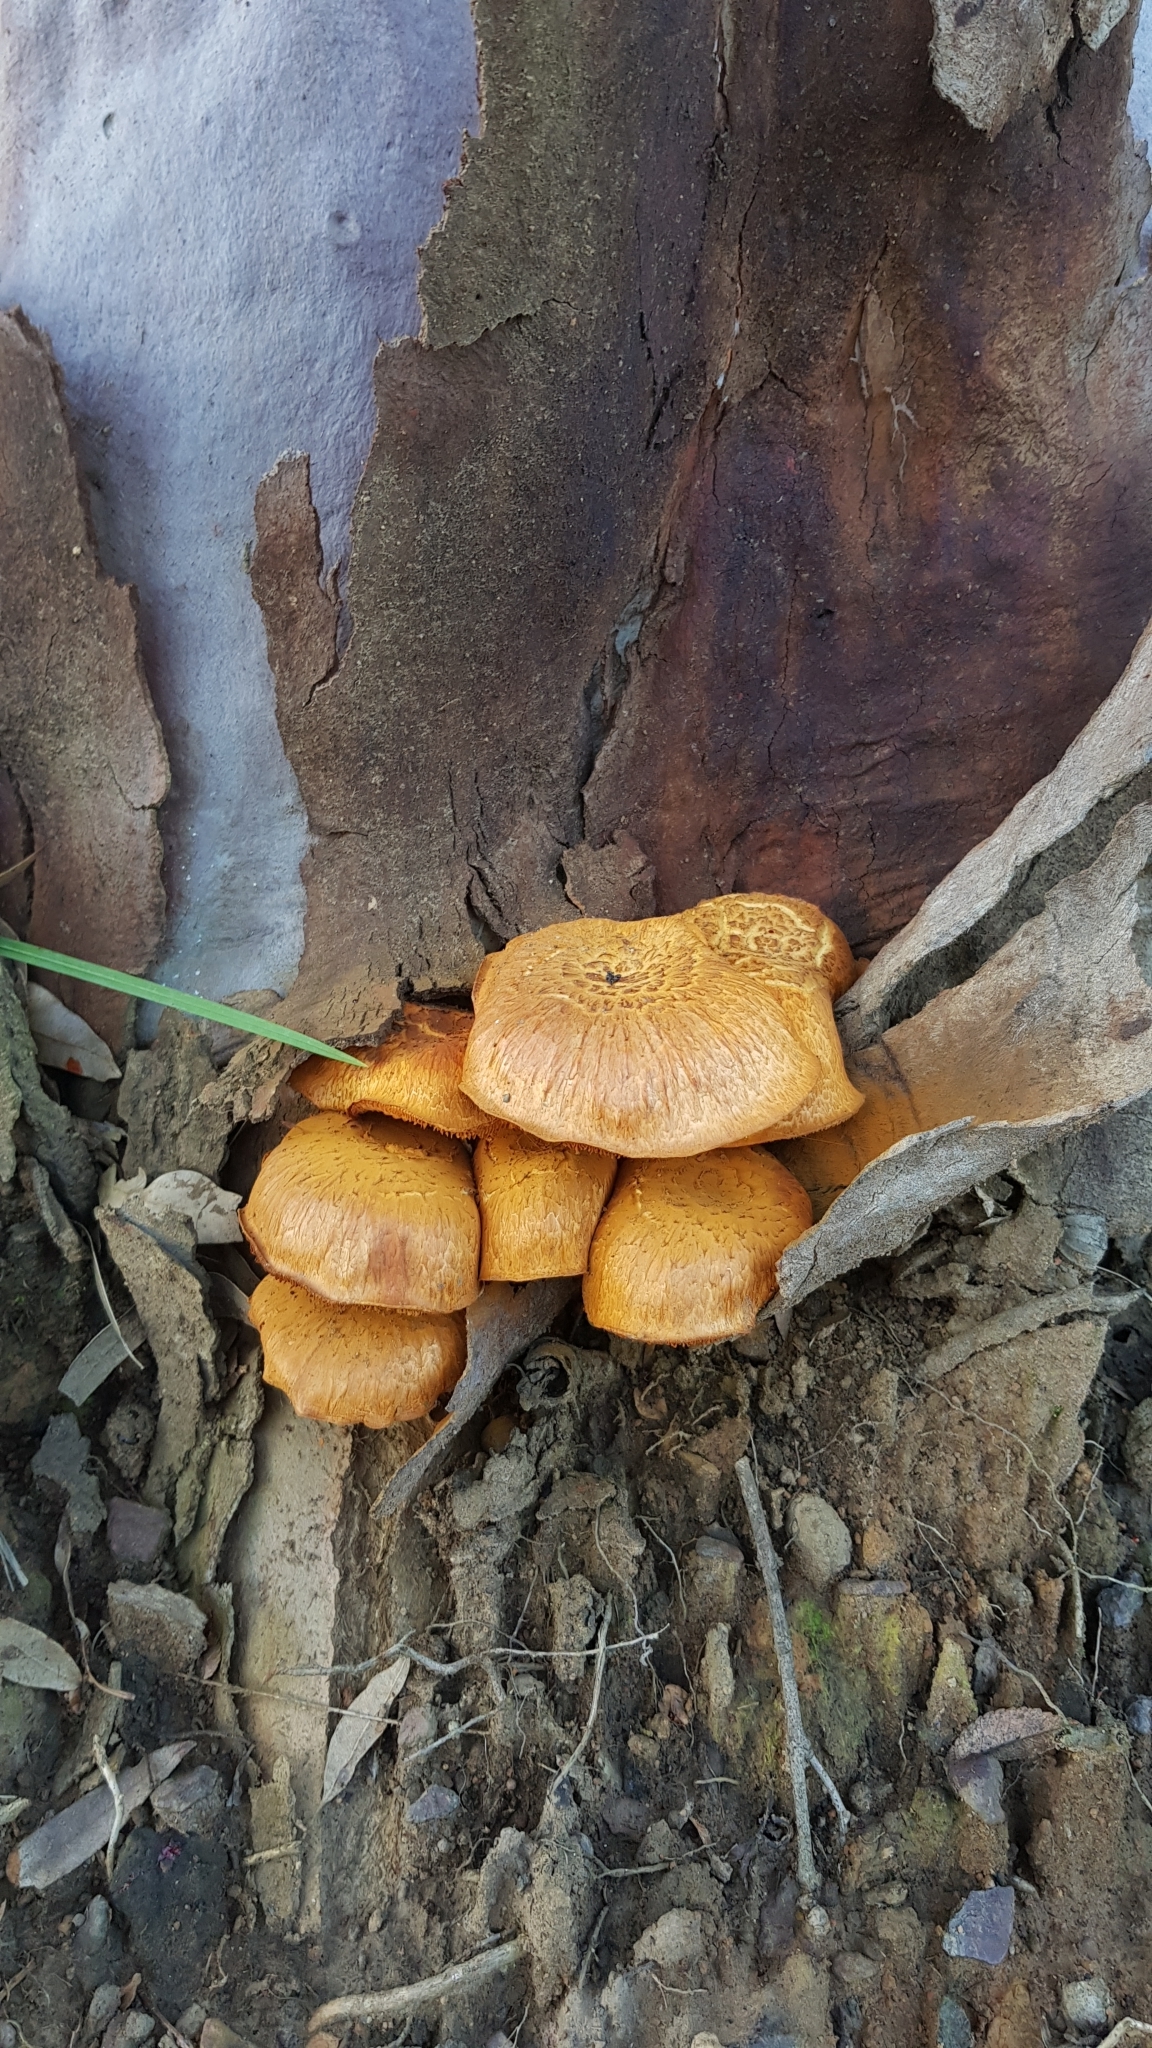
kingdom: Fungi
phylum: Basidiomycota
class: Agaricomycetes
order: Agaricales
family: Hymenogastraceae
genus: Gymnopilus
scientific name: Gymnopilus junonius
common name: Spectacular rustgill
